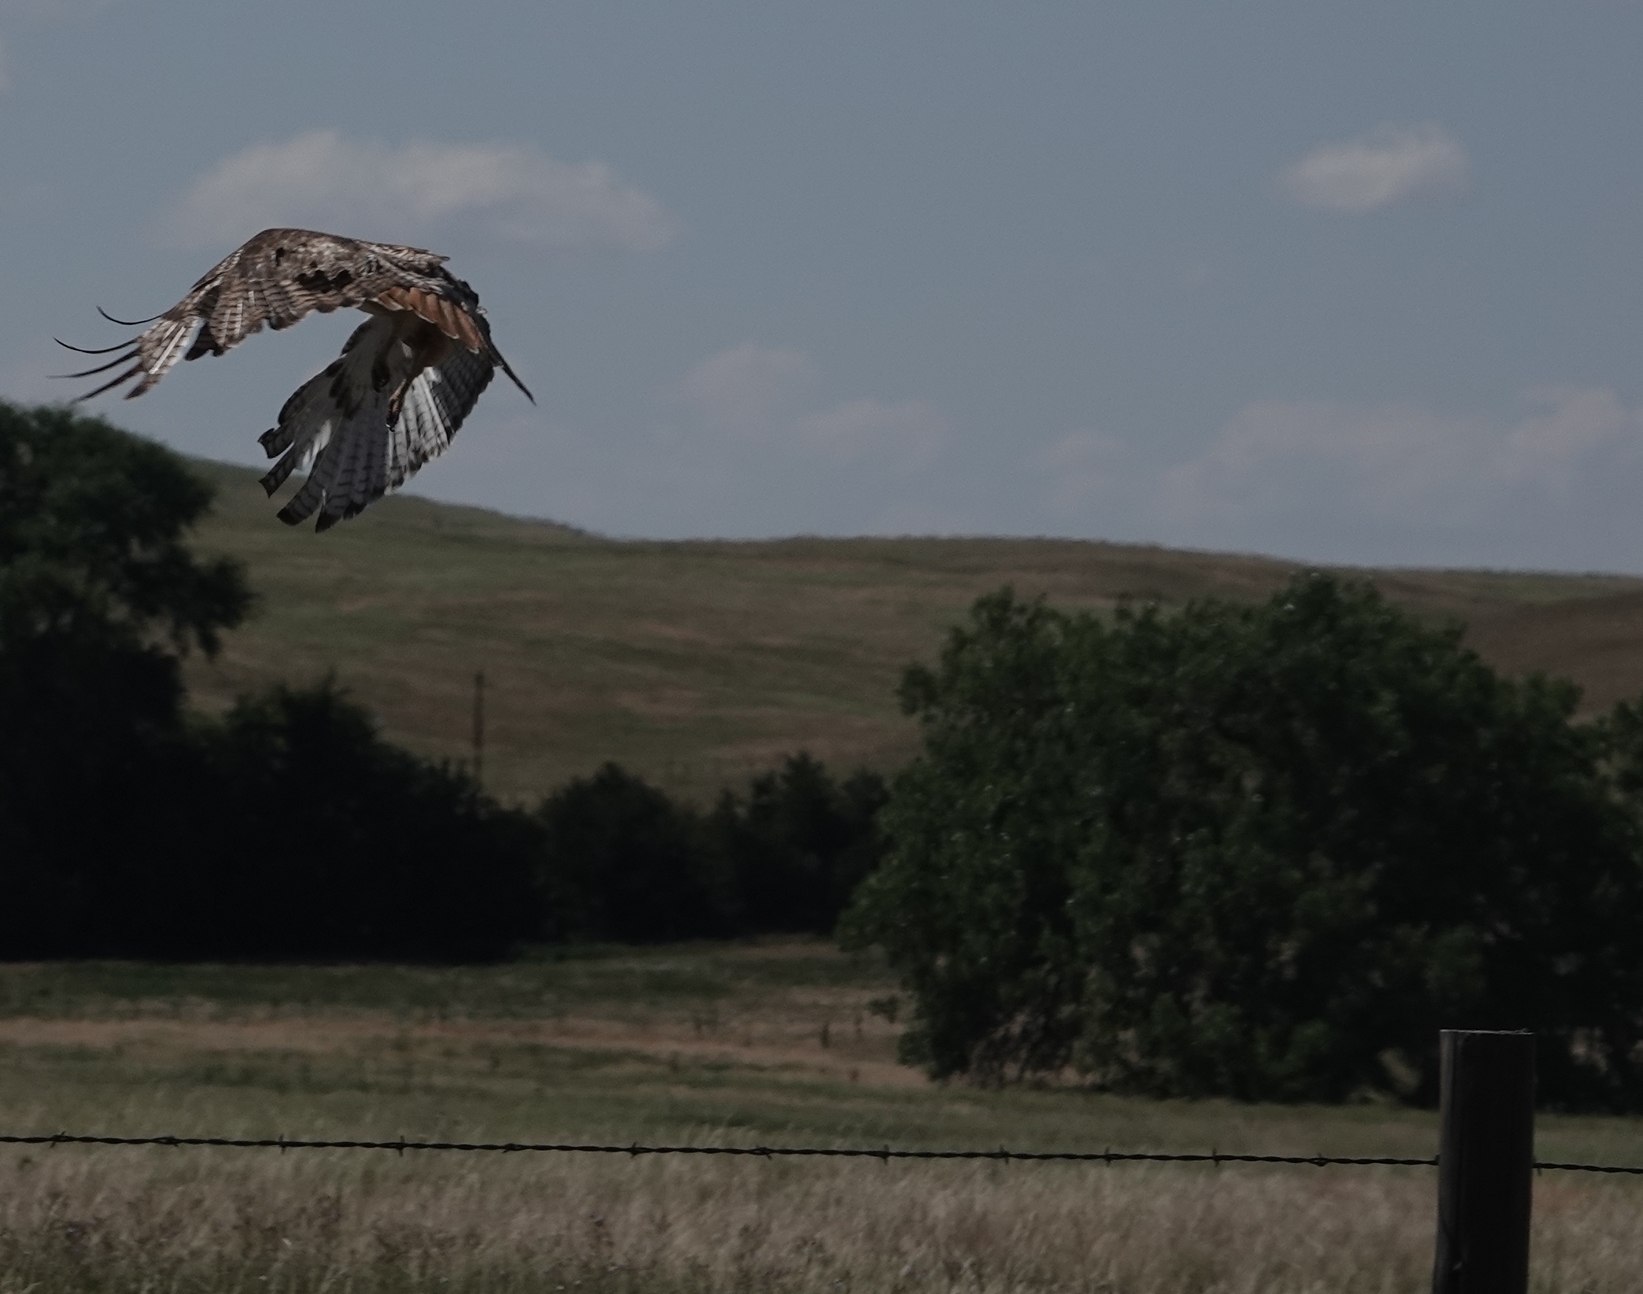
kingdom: Animalia
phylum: Chordata
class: Aves
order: Accipitriformes
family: Accipitridae
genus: Buteo
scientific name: Buteo jamaicensis
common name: Red-tailed hawk
